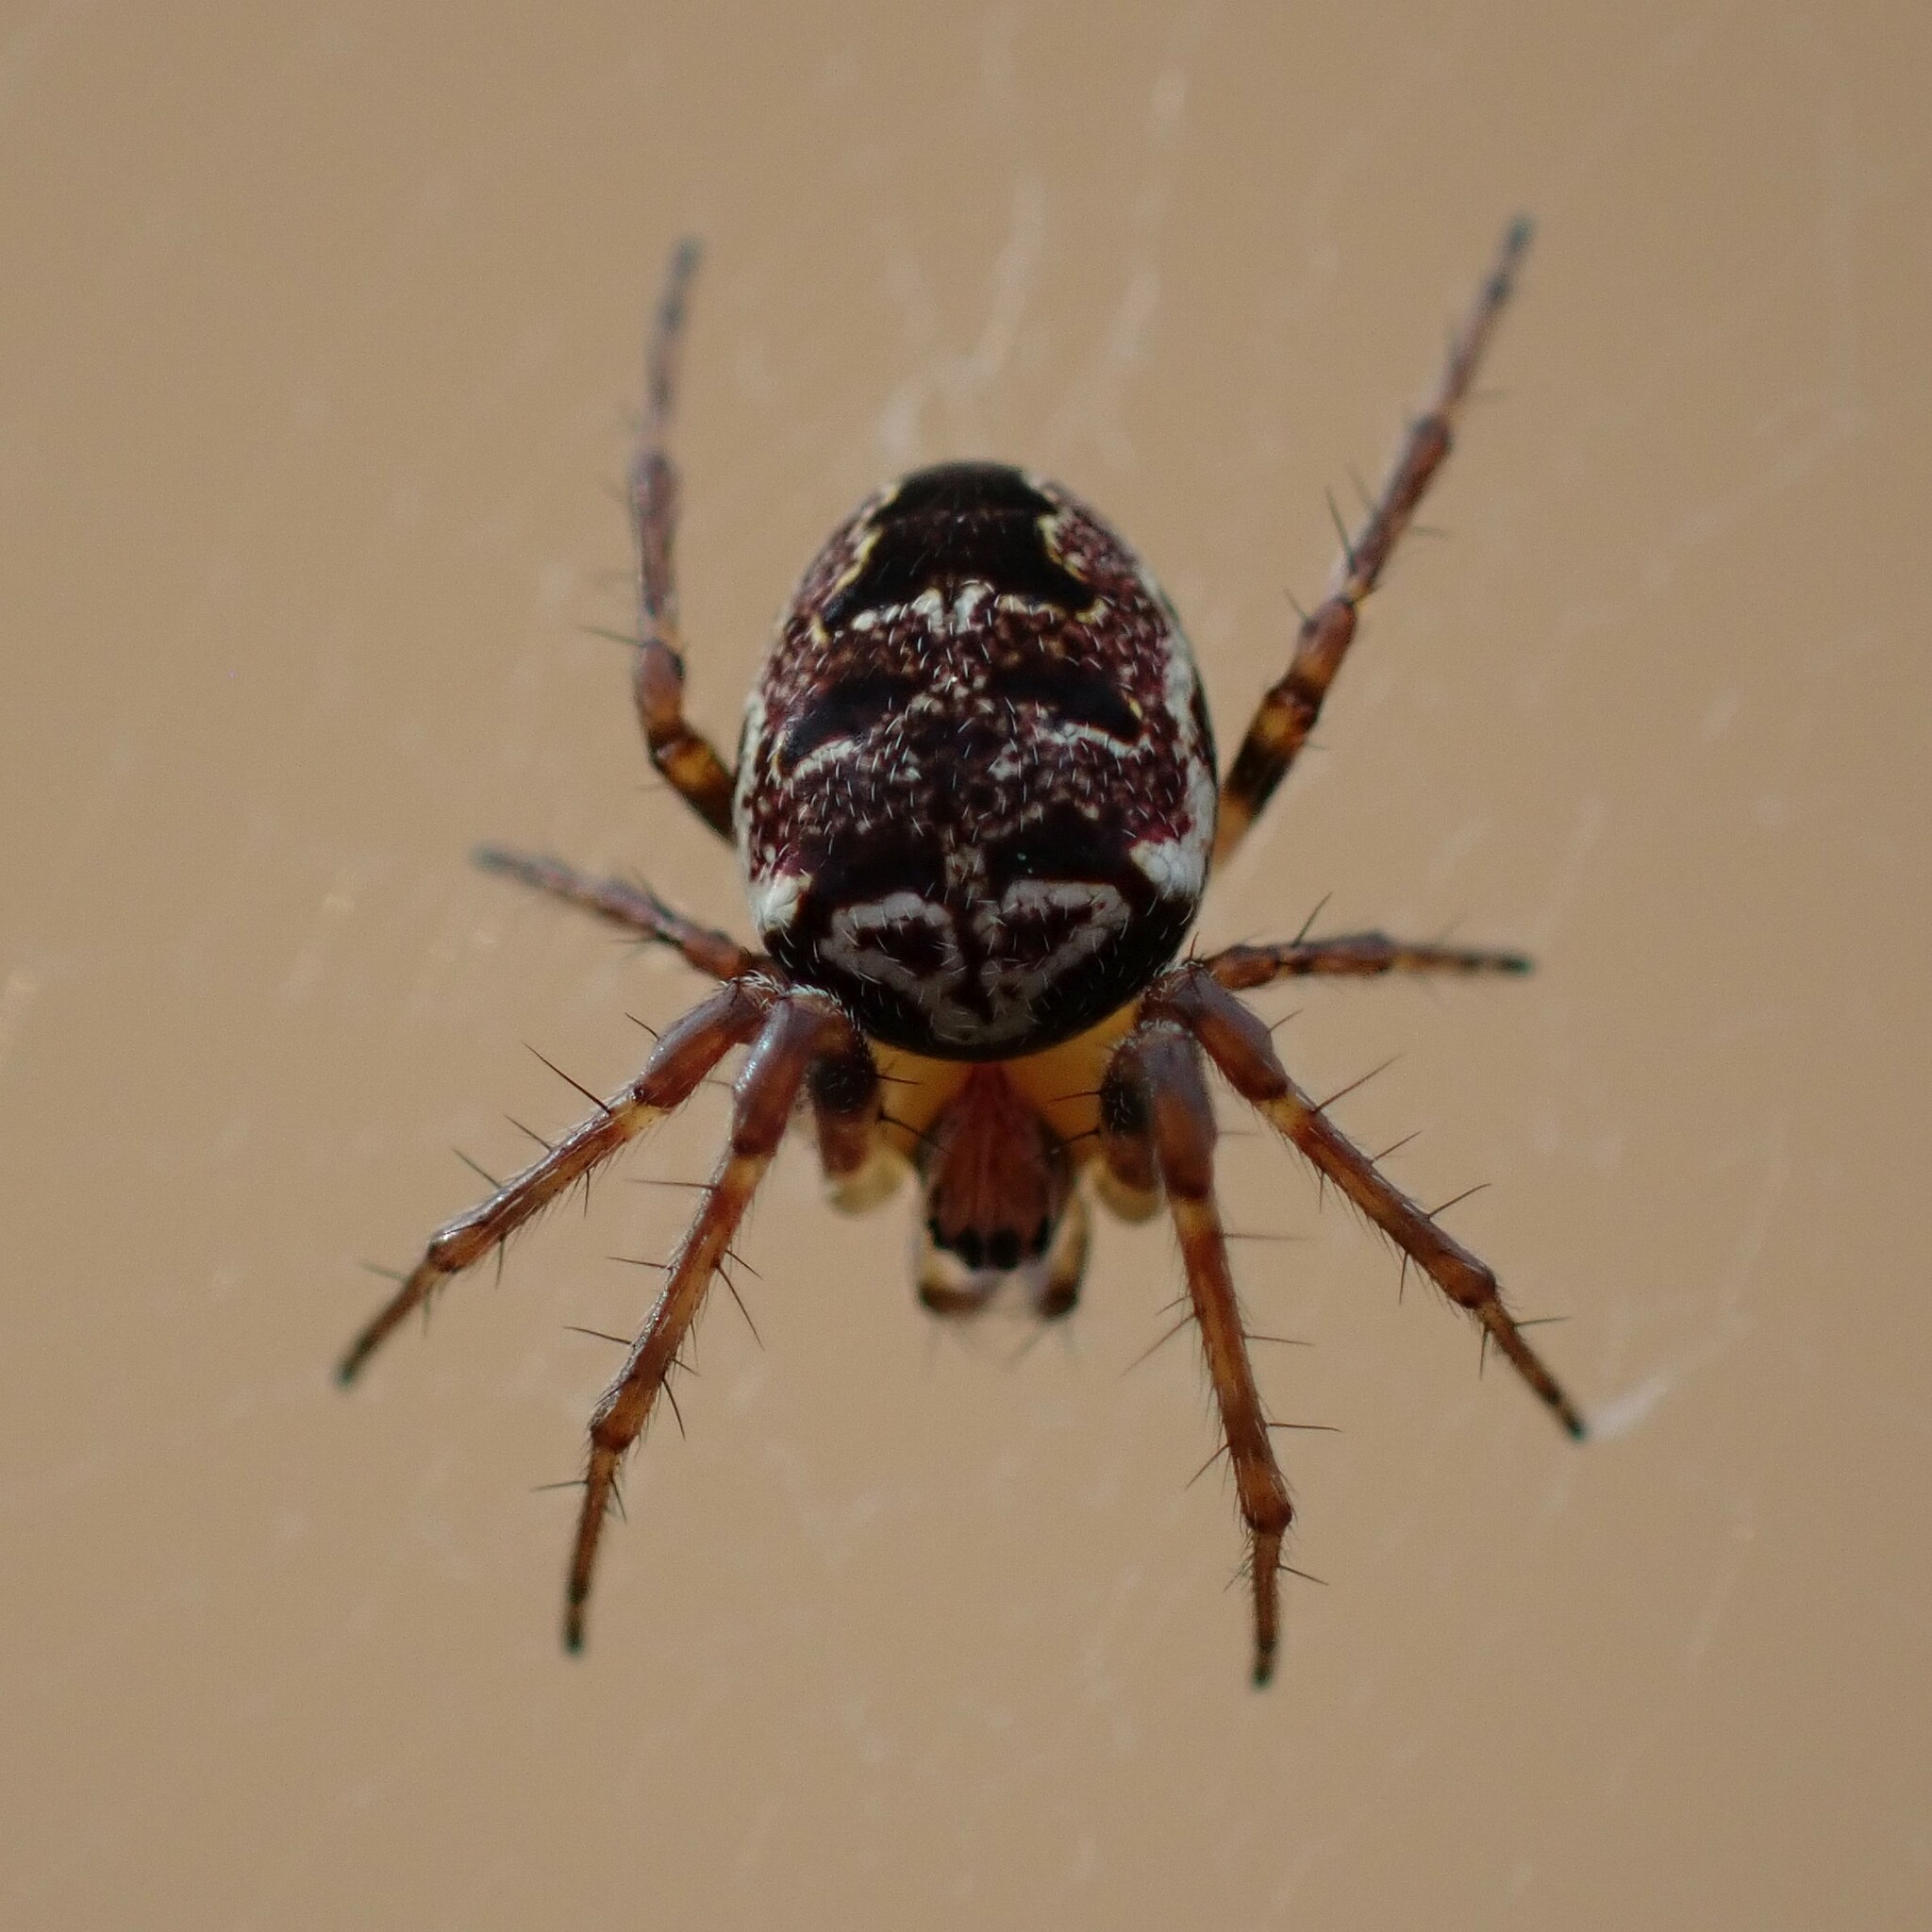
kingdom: Animalia
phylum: Arthropoda
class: Arachnida
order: Araneae
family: Araneidae
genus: Zilla
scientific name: Zilla diodia
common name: Zilla diodia
